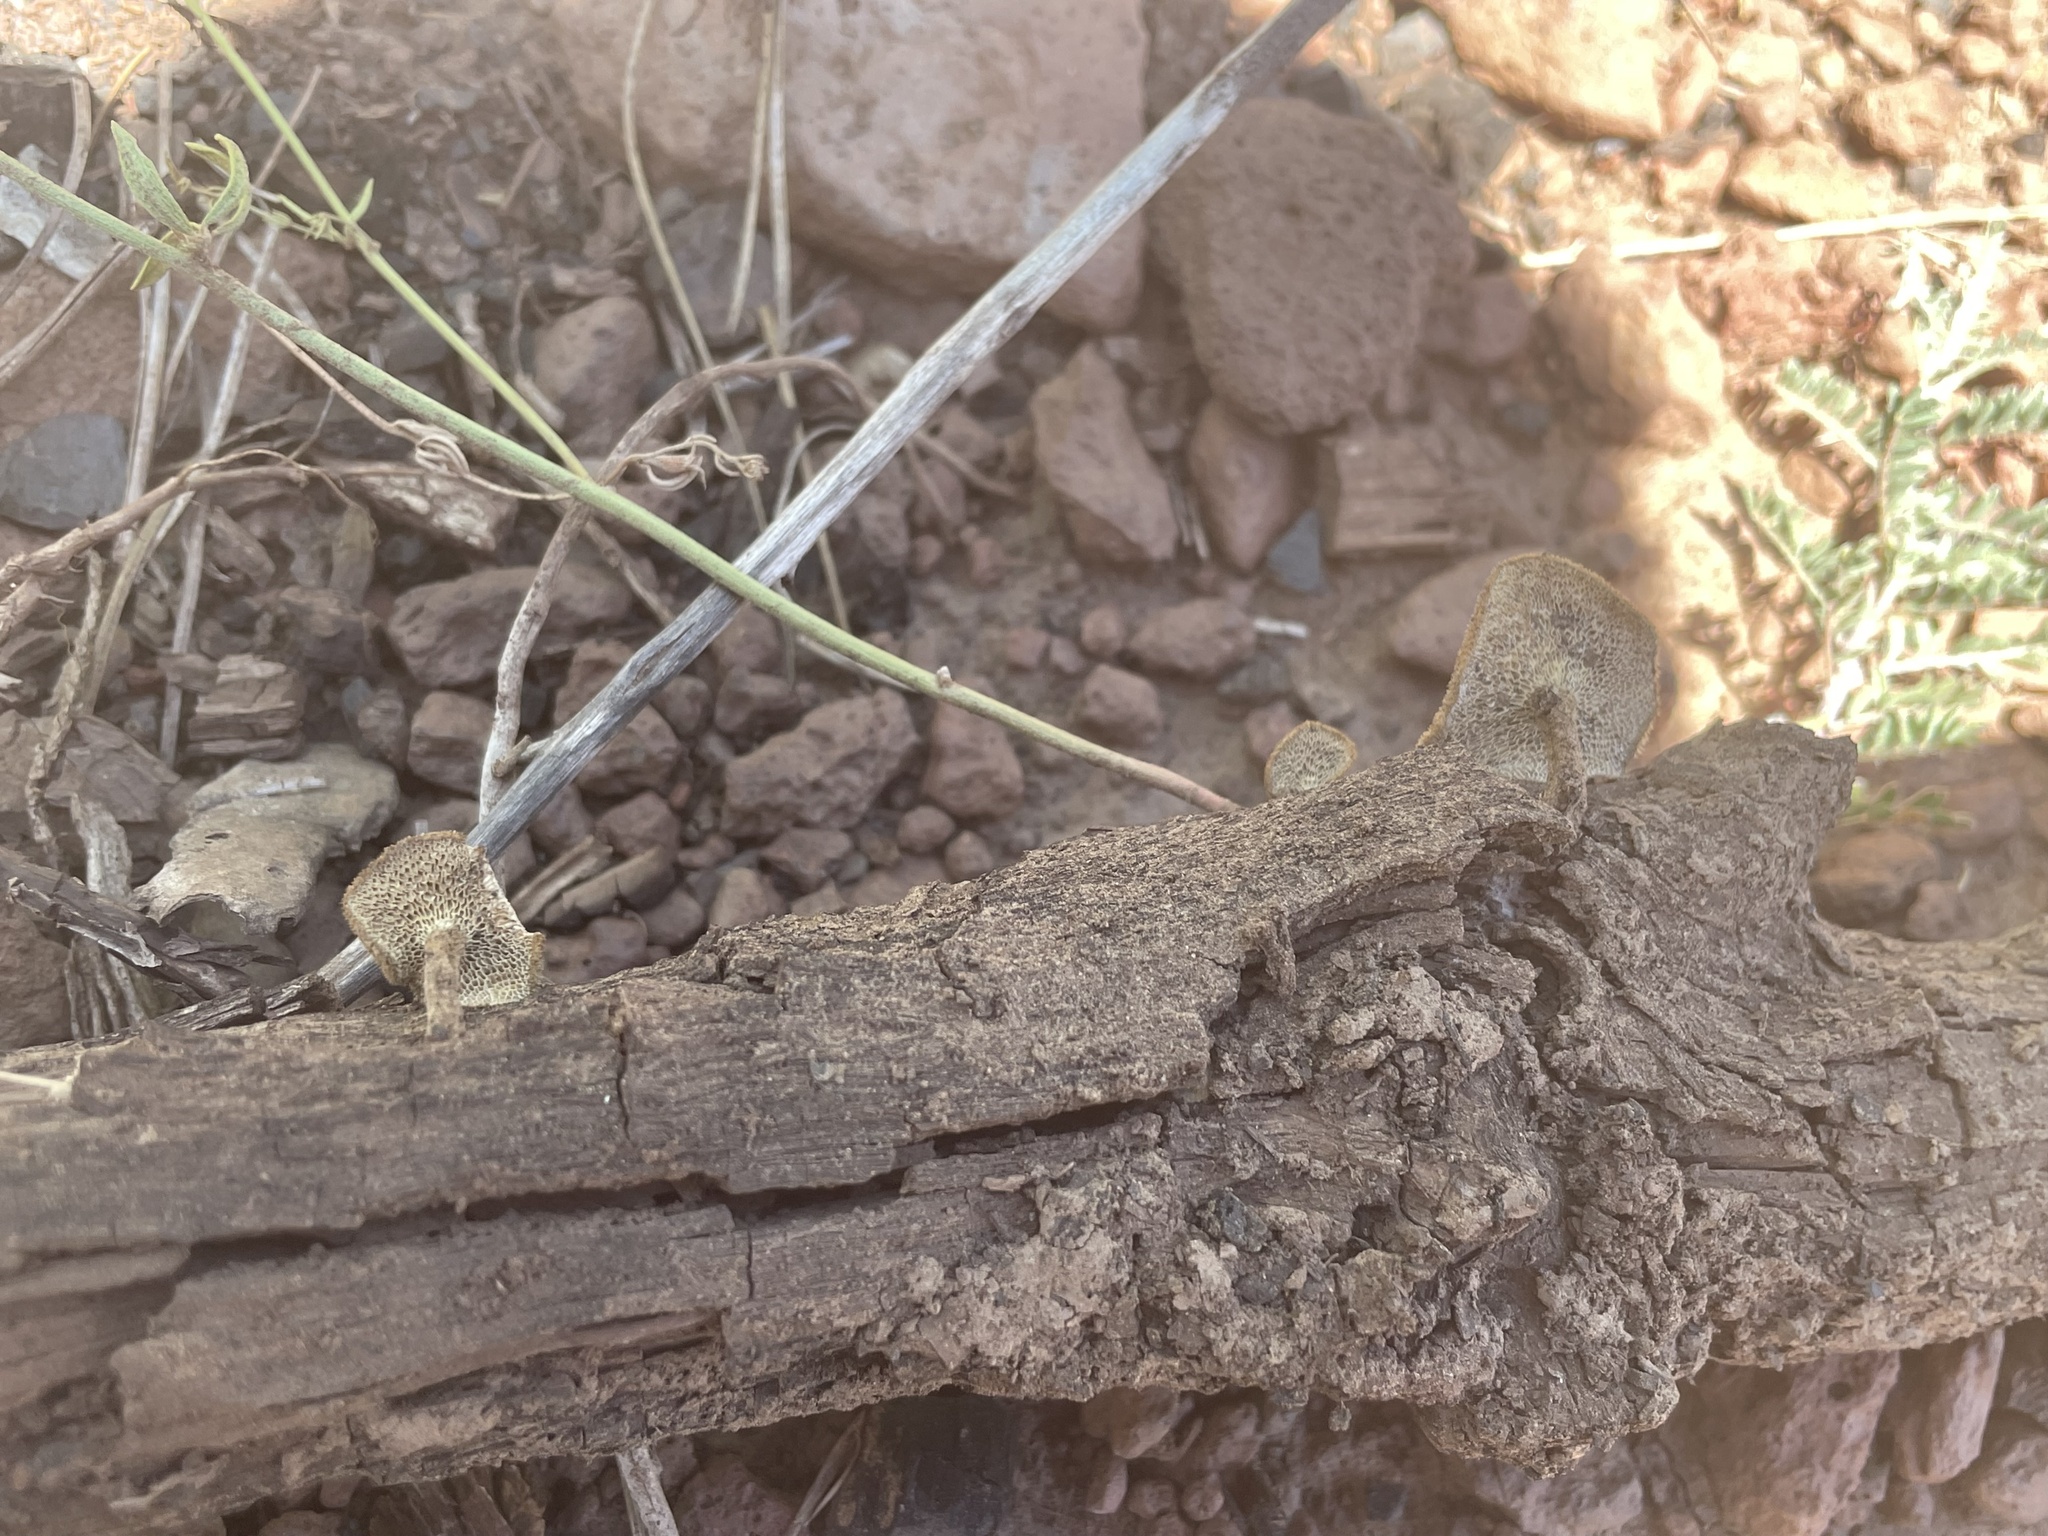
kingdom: Fungi
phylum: Basidiomycota
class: Agaricomycetes
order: Polyporales
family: Polyporaceae
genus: Lentinus
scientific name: Lentinus arcularius
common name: Spring polypore
